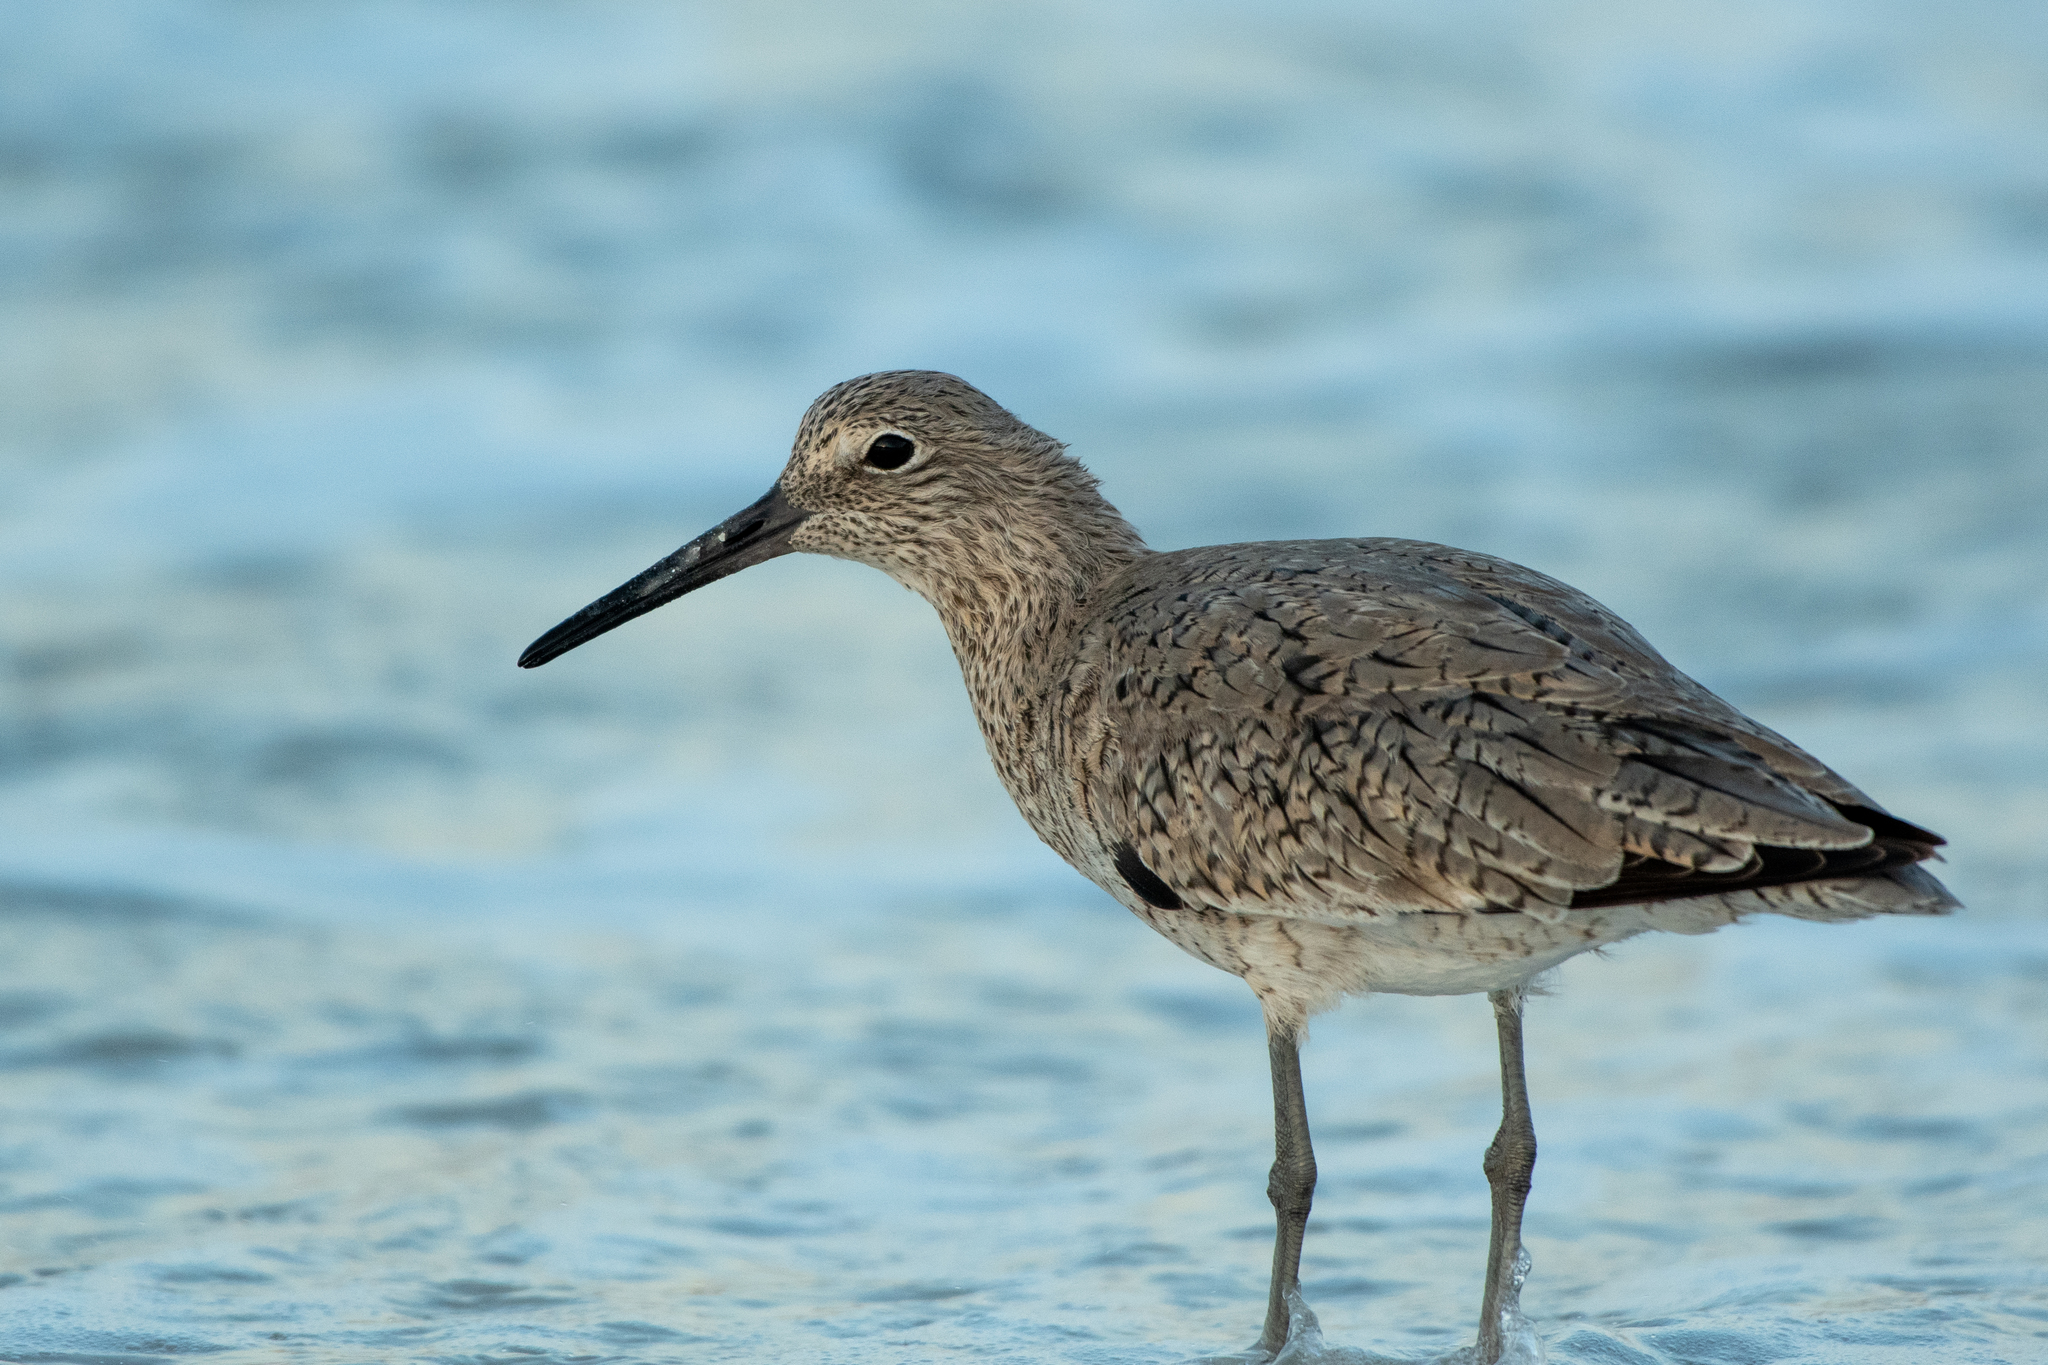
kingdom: Animalia
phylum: Chordata
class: Aves
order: Charadriiformes
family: Scolopacidae
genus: Tringa
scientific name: Tringa semipalmata
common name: Willet
